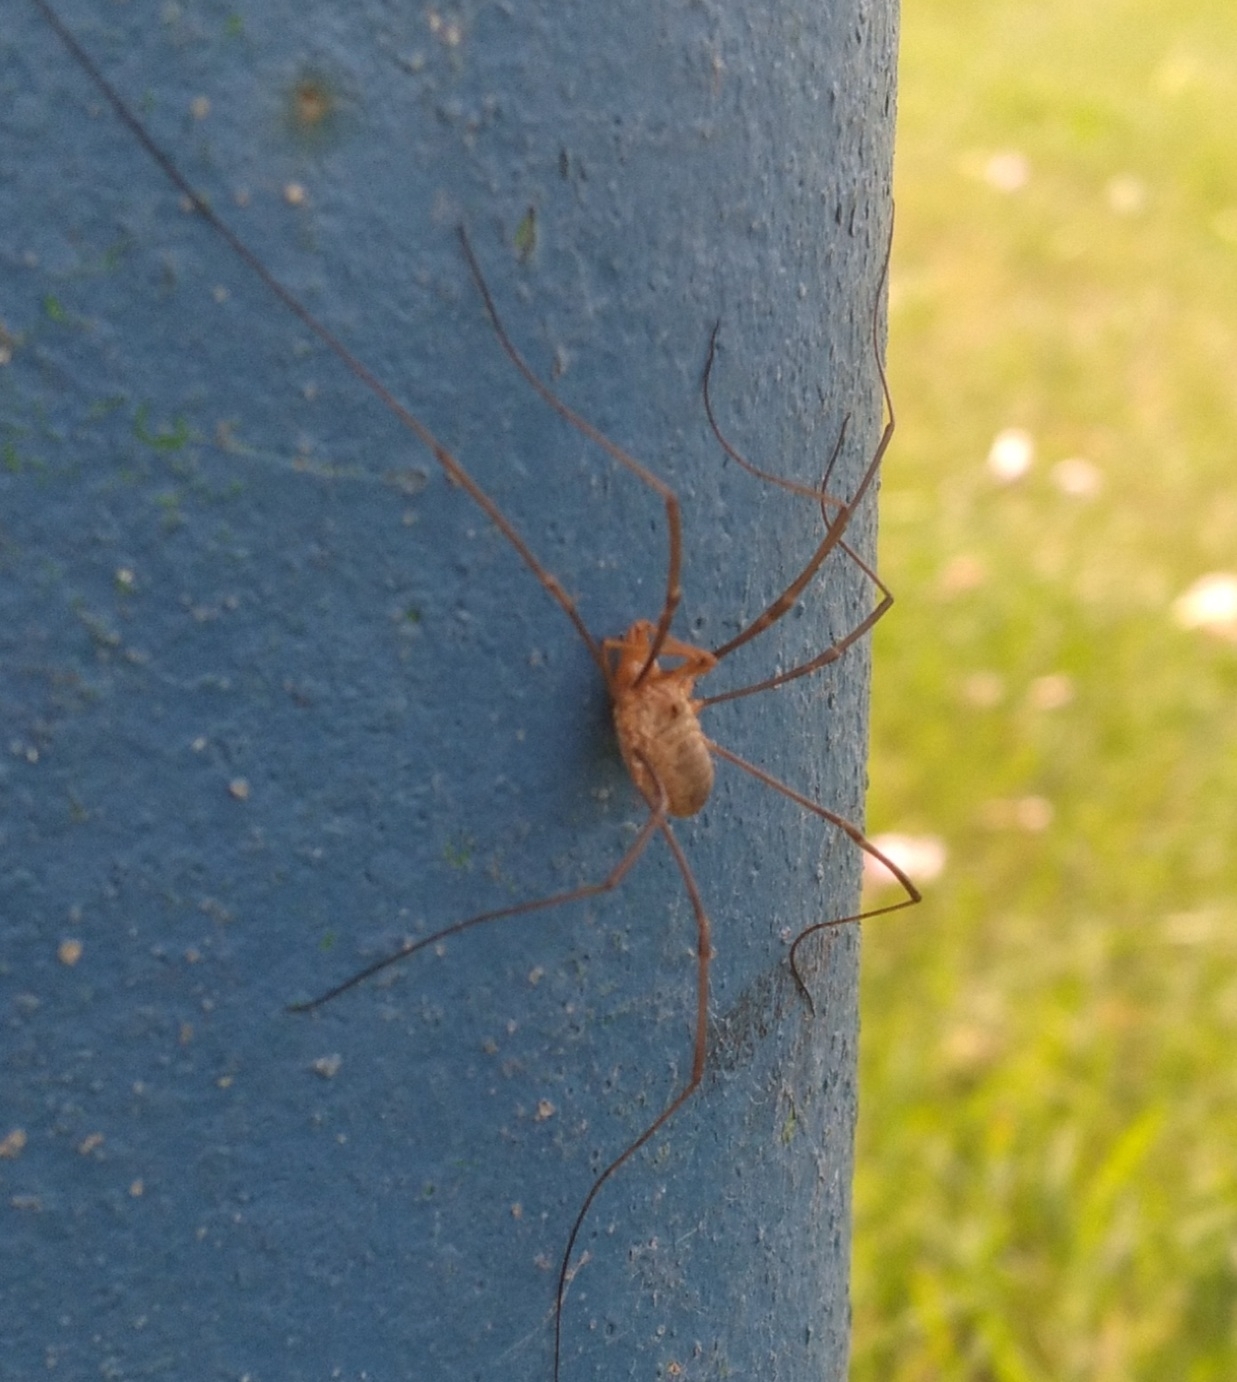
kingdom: Animalia
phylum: Arthropoda
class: Arachnida
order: Opiliones
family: Phalangiidae
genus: Phalangium
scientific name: Phalangium opilio
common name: Daddy longleg
